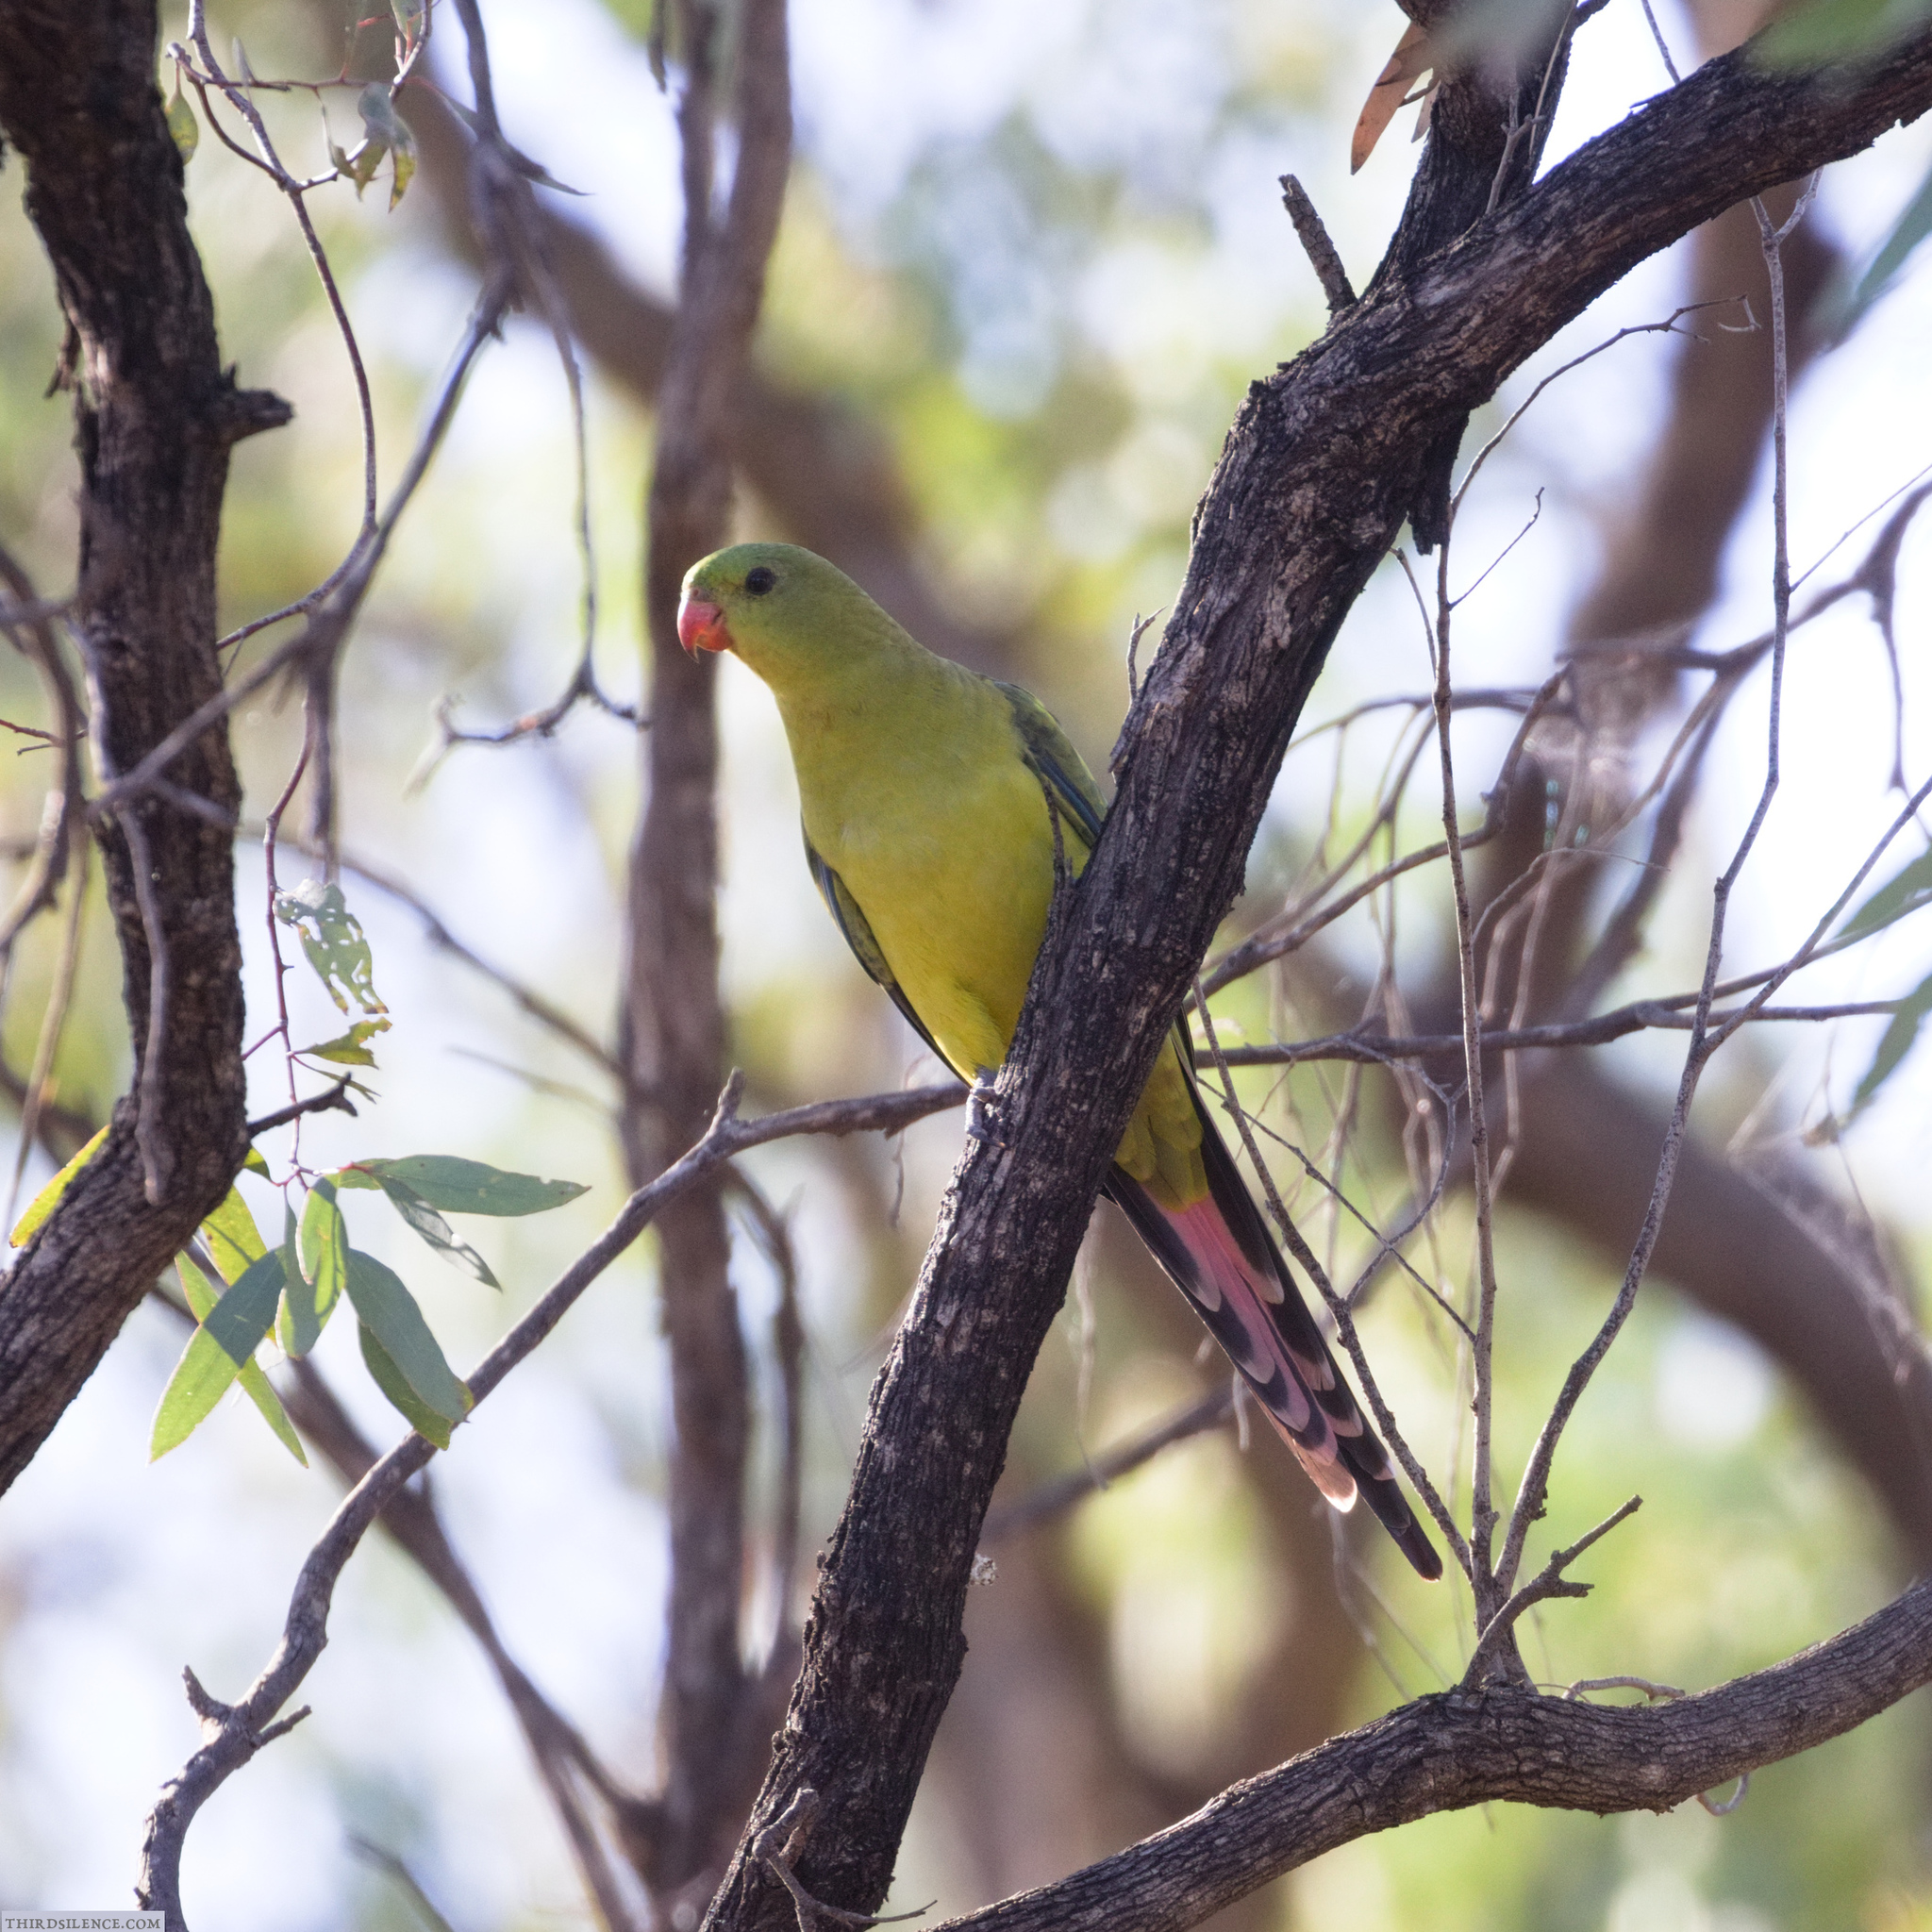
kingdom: Animalia
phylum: Chordata
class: Aves
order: Psittaciformes
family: Psittacidae
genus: Polytelis
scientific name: Polytelis anthopeplus
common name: Regent parrot
